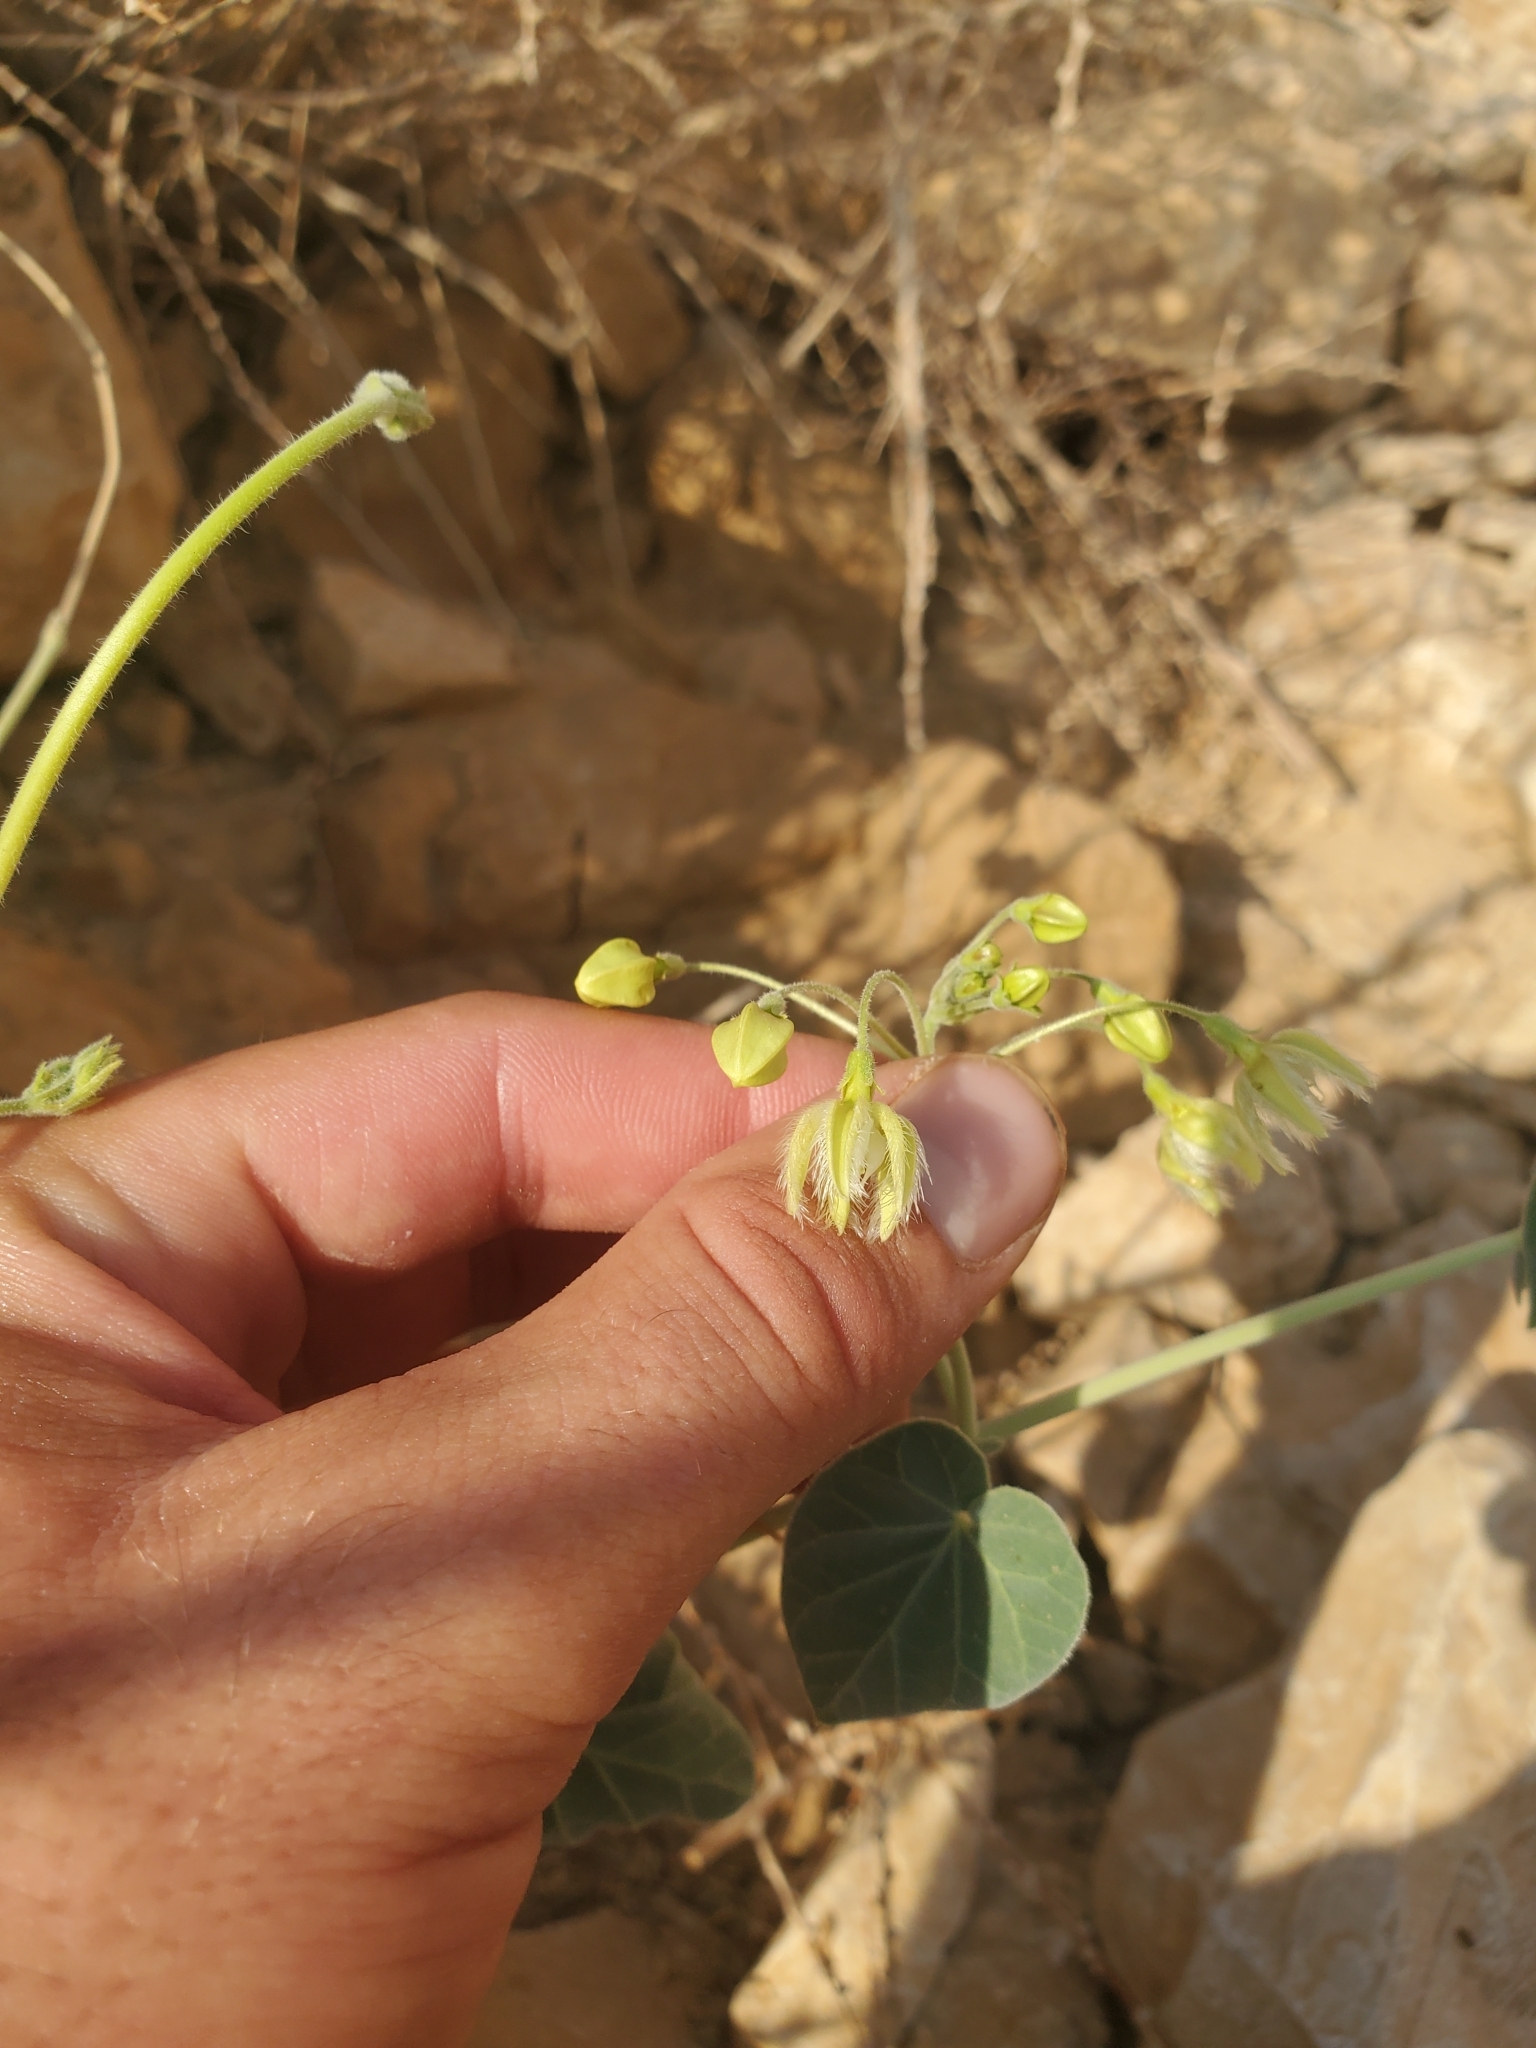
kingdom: Plantae
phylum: Tracheophyta
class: Magnoliopsida
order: Gentianales
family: Apocynaceae
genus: Pergularia
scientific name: Pergularia tomentosa
